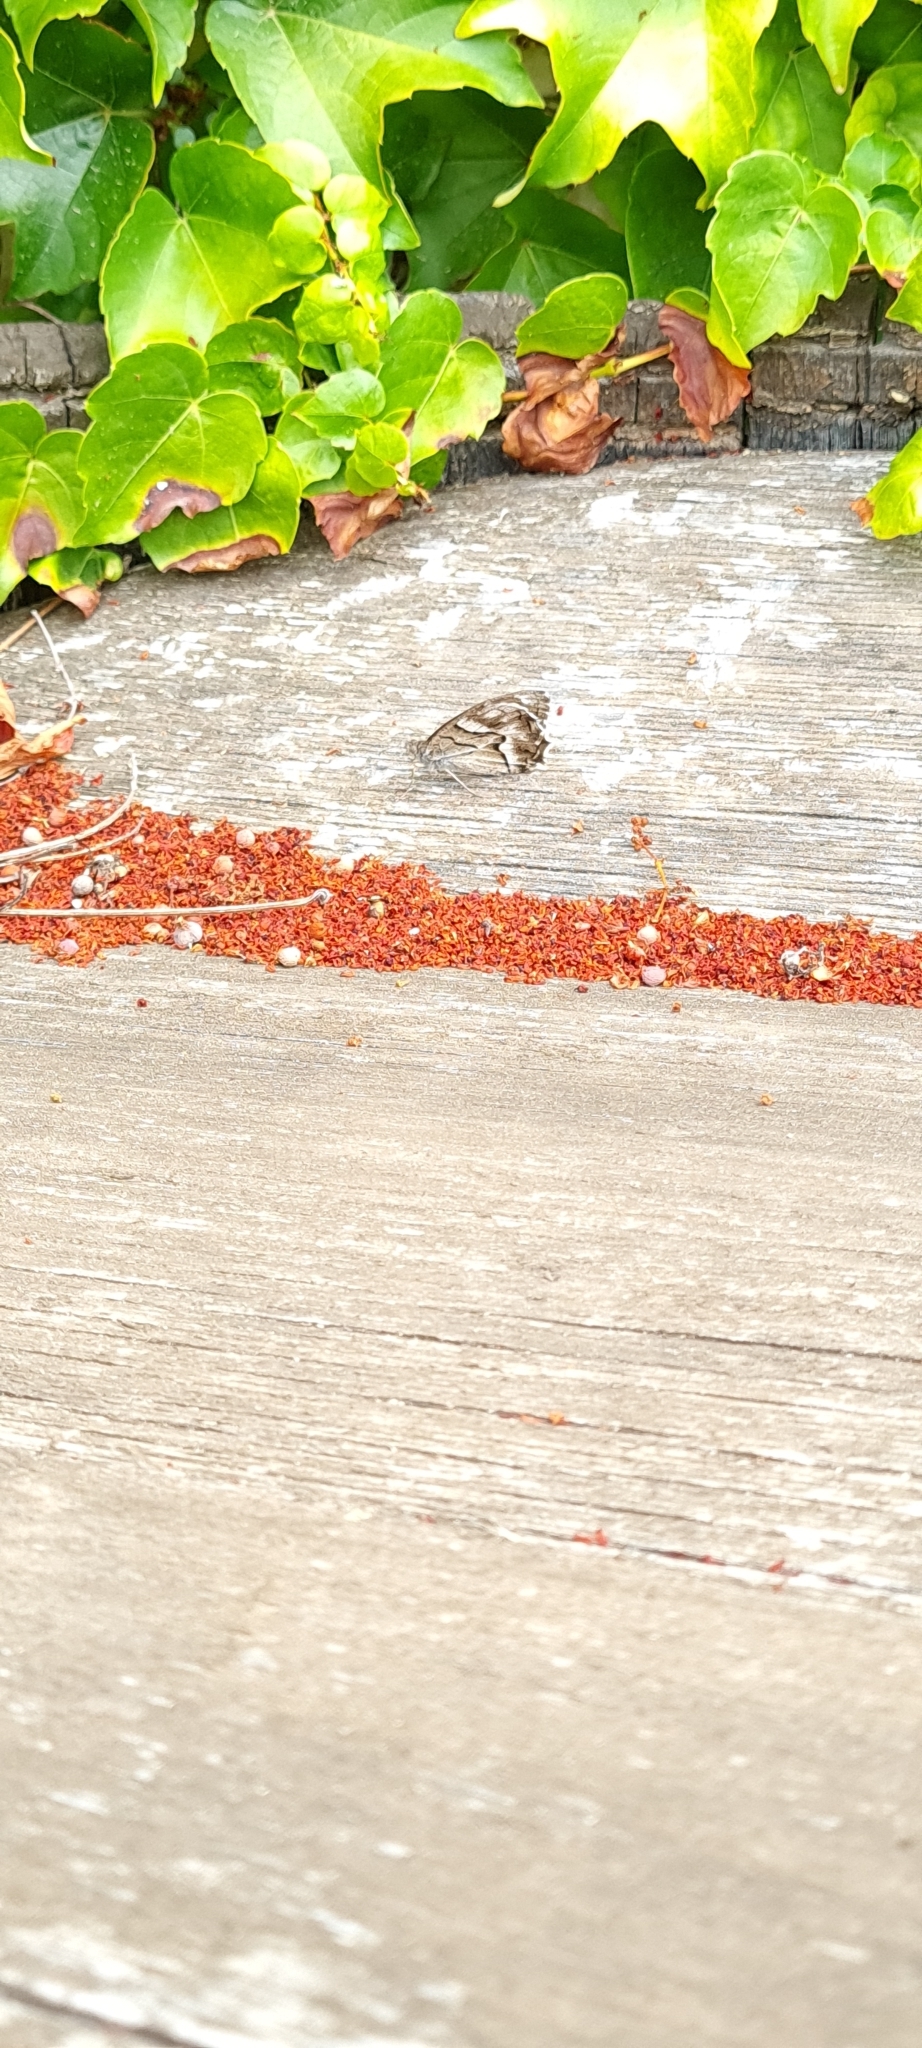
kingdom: Animalia
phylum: Arthropoda
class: Insecta
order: Lepidoptera
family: Nymphalidae
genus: Hipparchia
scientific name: Hipparchia fidia
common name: Striped grayling
